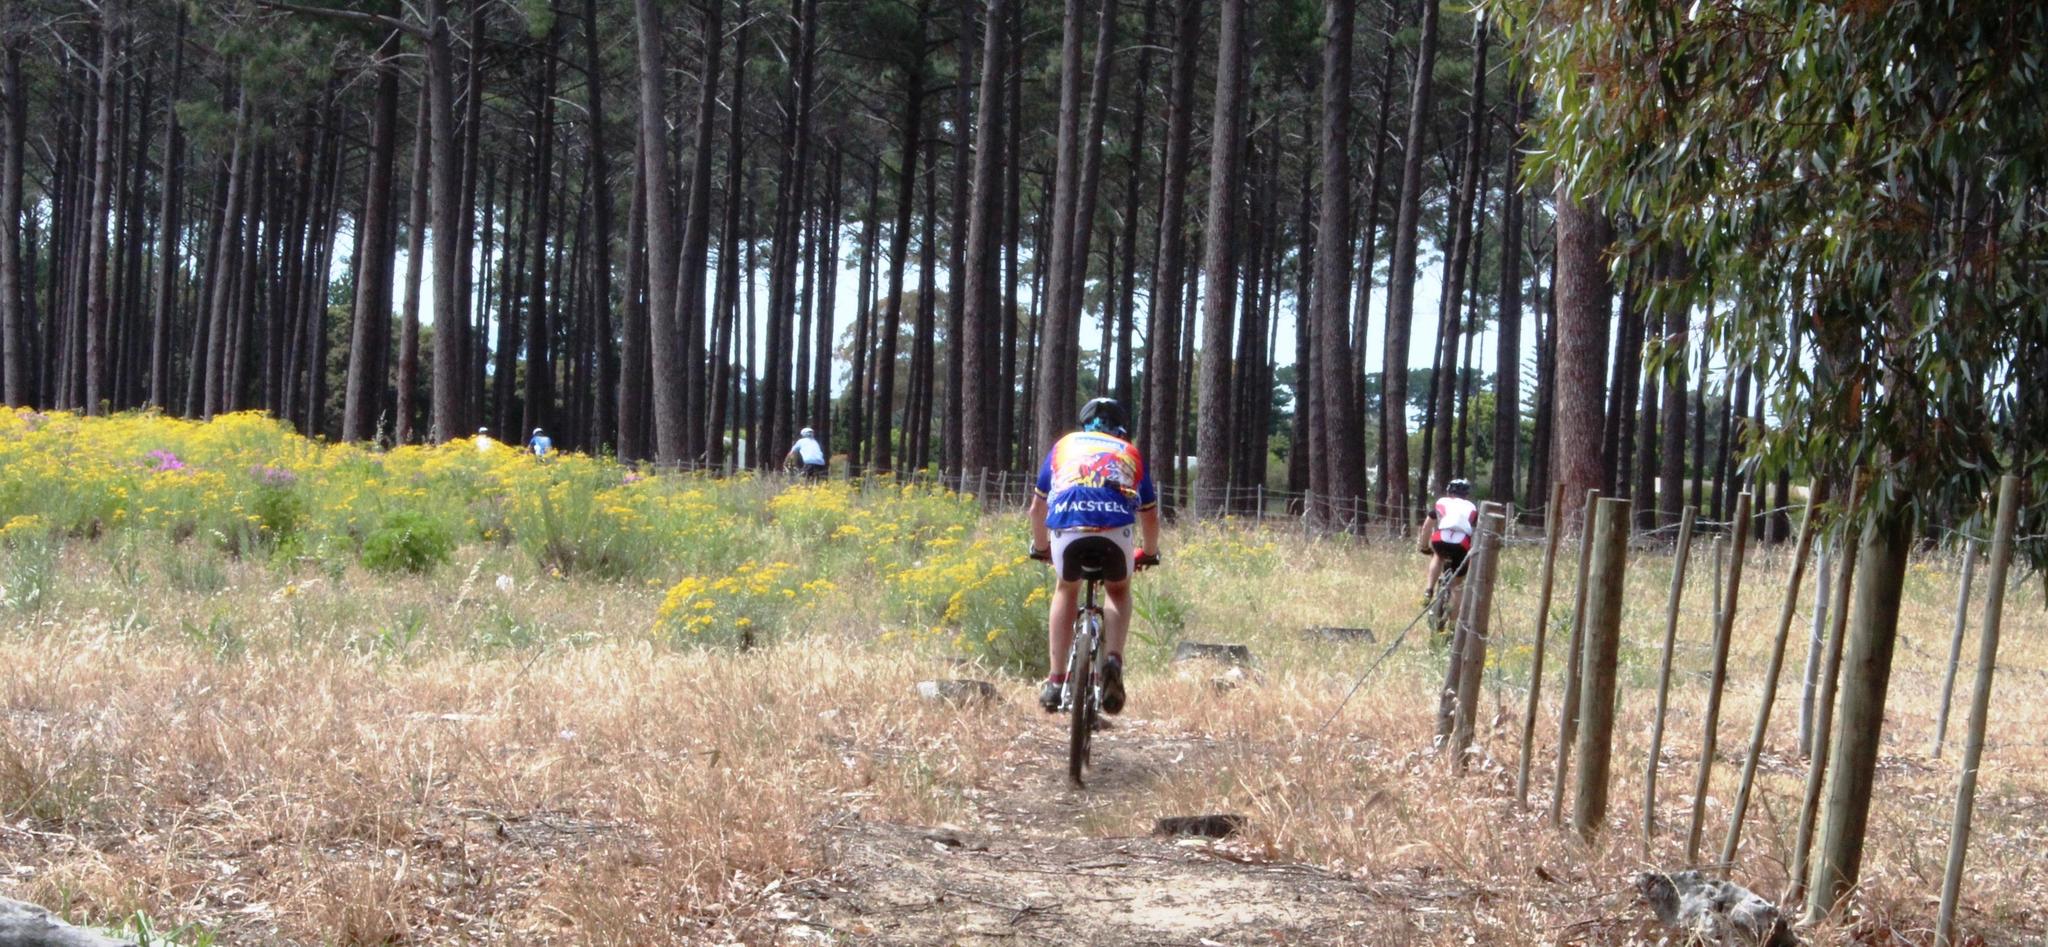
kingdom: Plantae
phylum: Tracheophyta
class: Magnoliopsida
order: Asterales
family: Asteraceae
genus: Senecio
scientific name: Senecio pterophorus
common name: Shoddy ragwort
